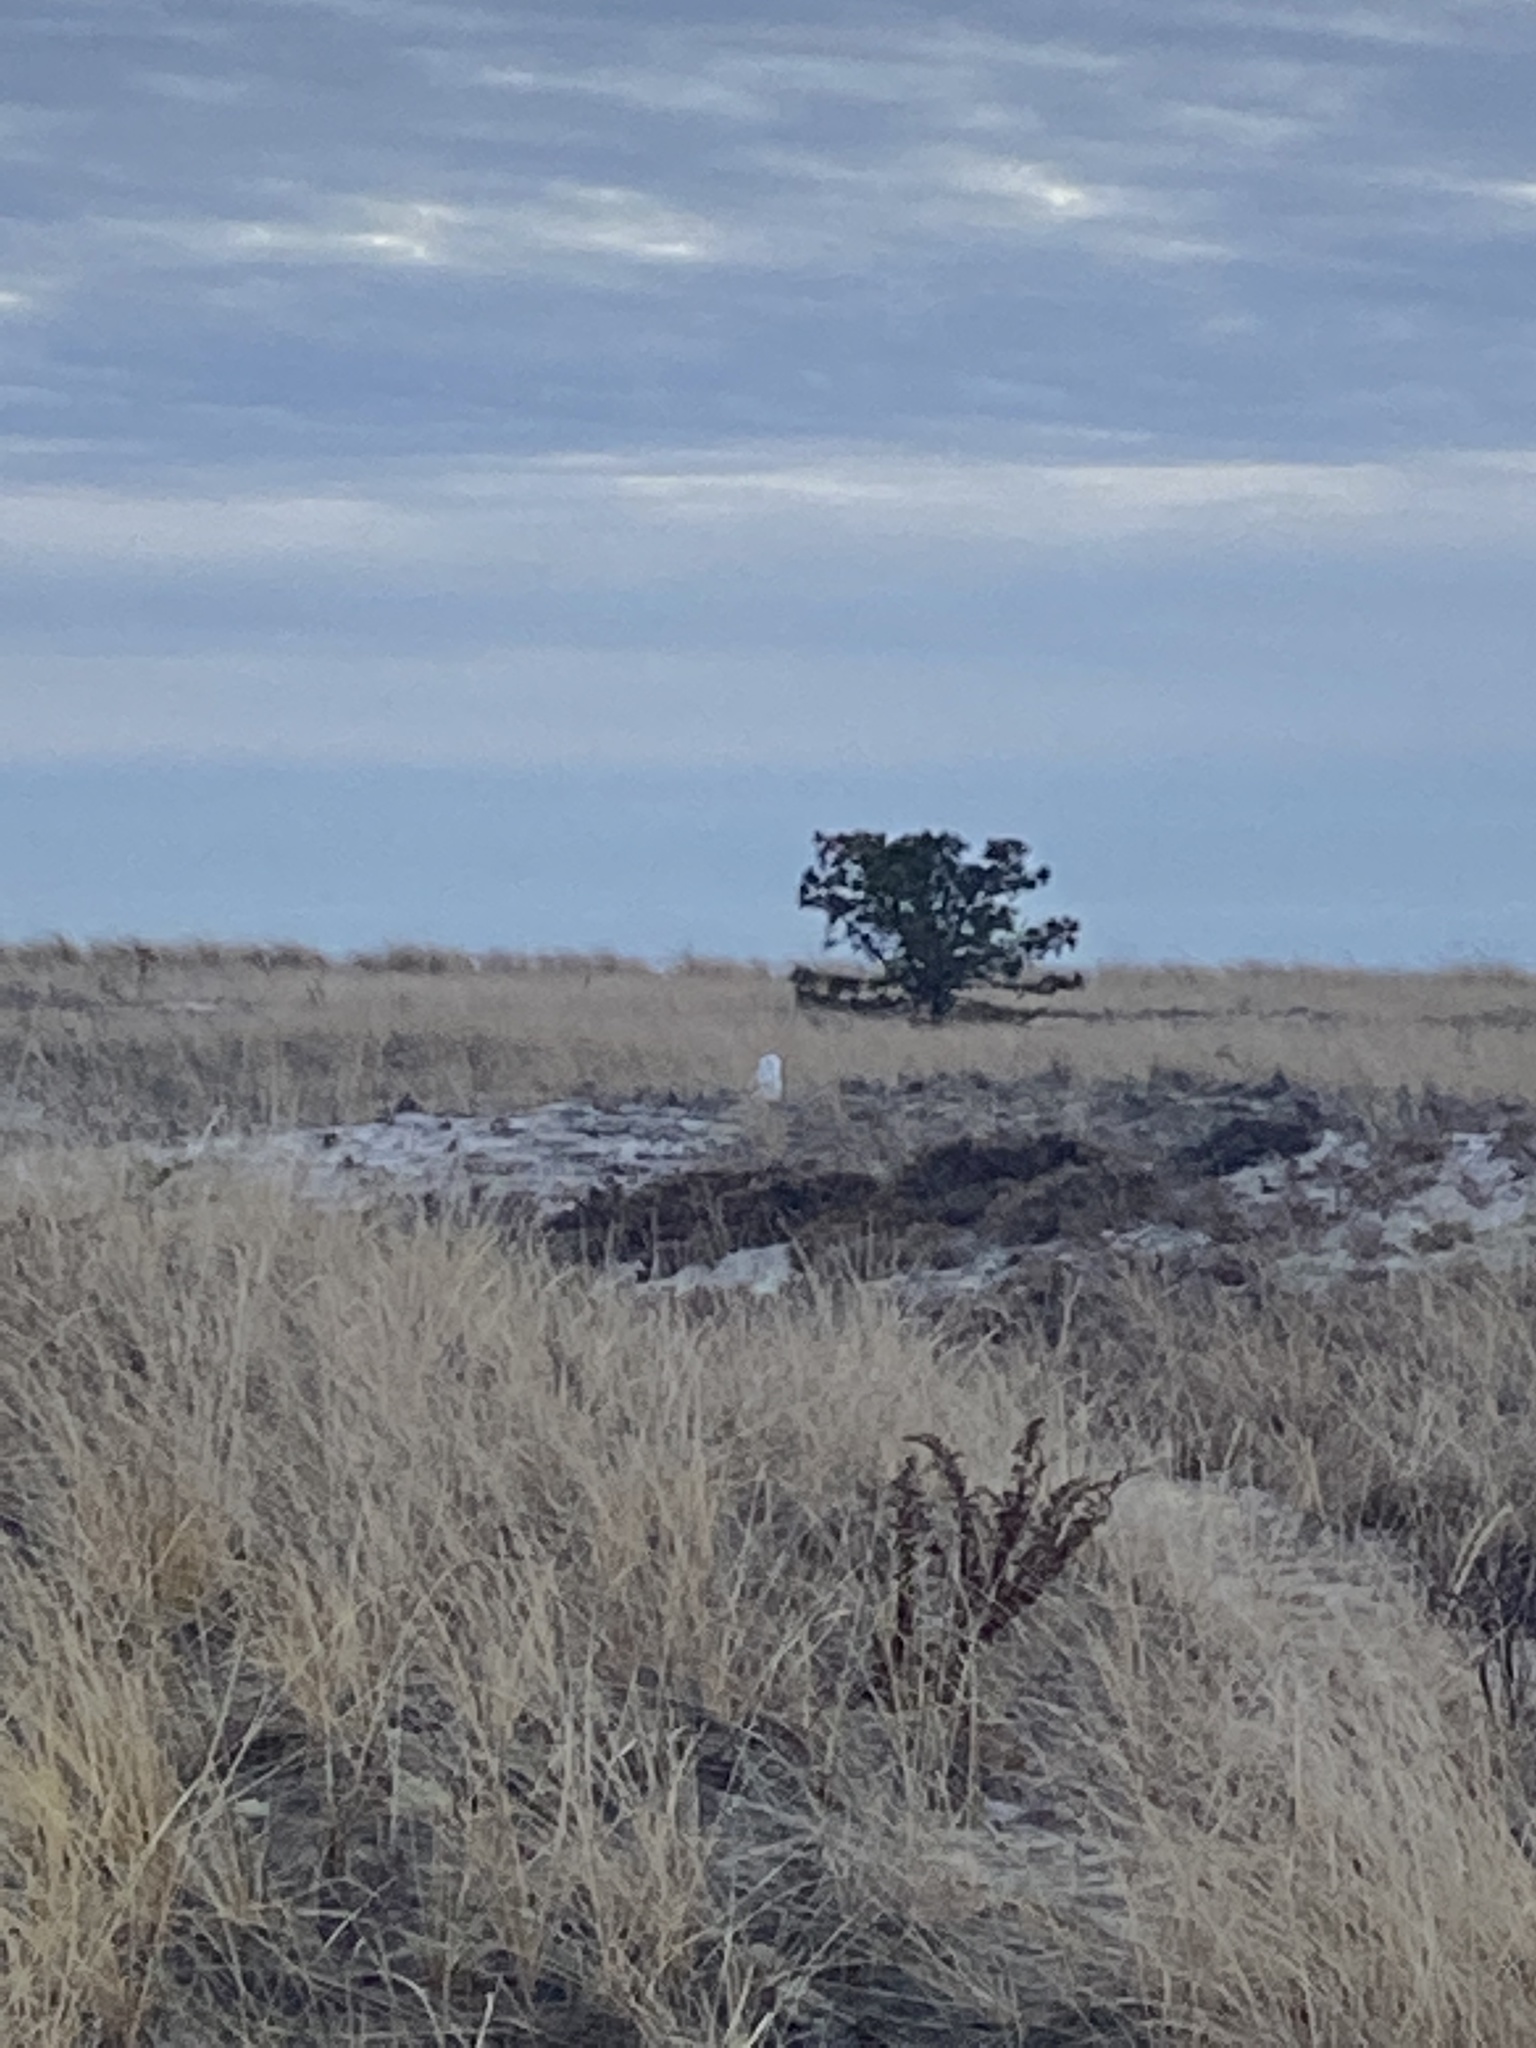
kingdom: Animalia
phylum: Chordata
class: Aves
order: Strigiformes
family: Strigidae
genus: Bubo
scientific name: Bubo scandiacus
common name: Snowy owl
